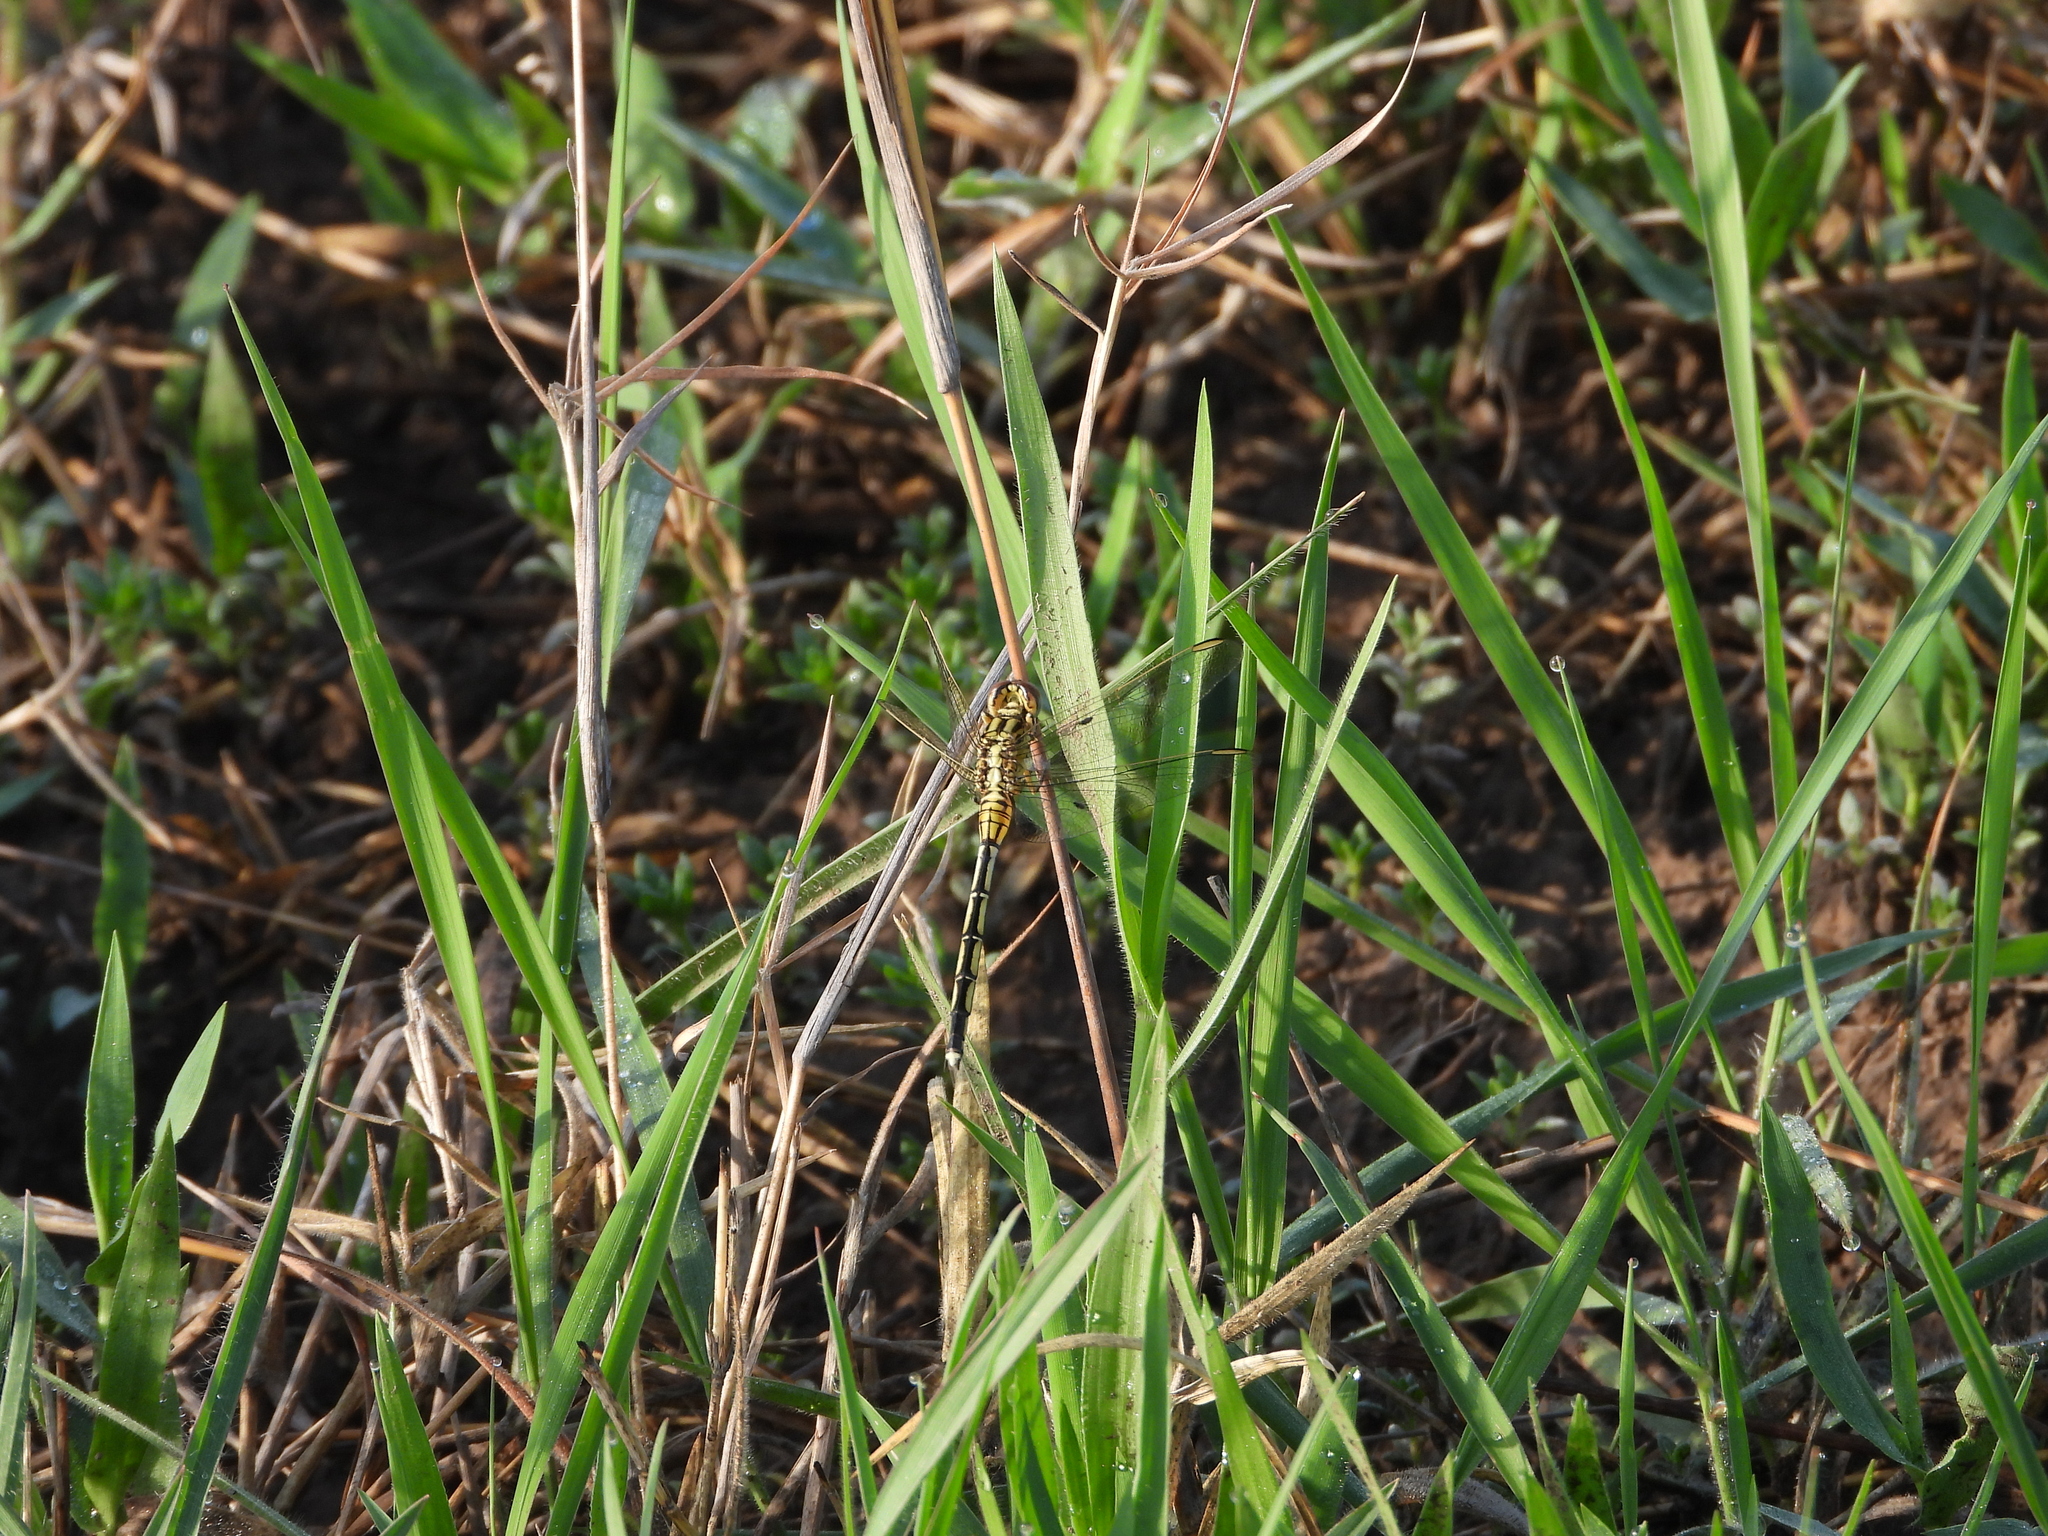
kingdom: Animalia
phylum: Arthropoda
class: Insecta
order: Odonata
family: Libellulidae
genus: Orthetrum
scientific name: Orthetrum icteromelas
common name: Spectacled skimmer
